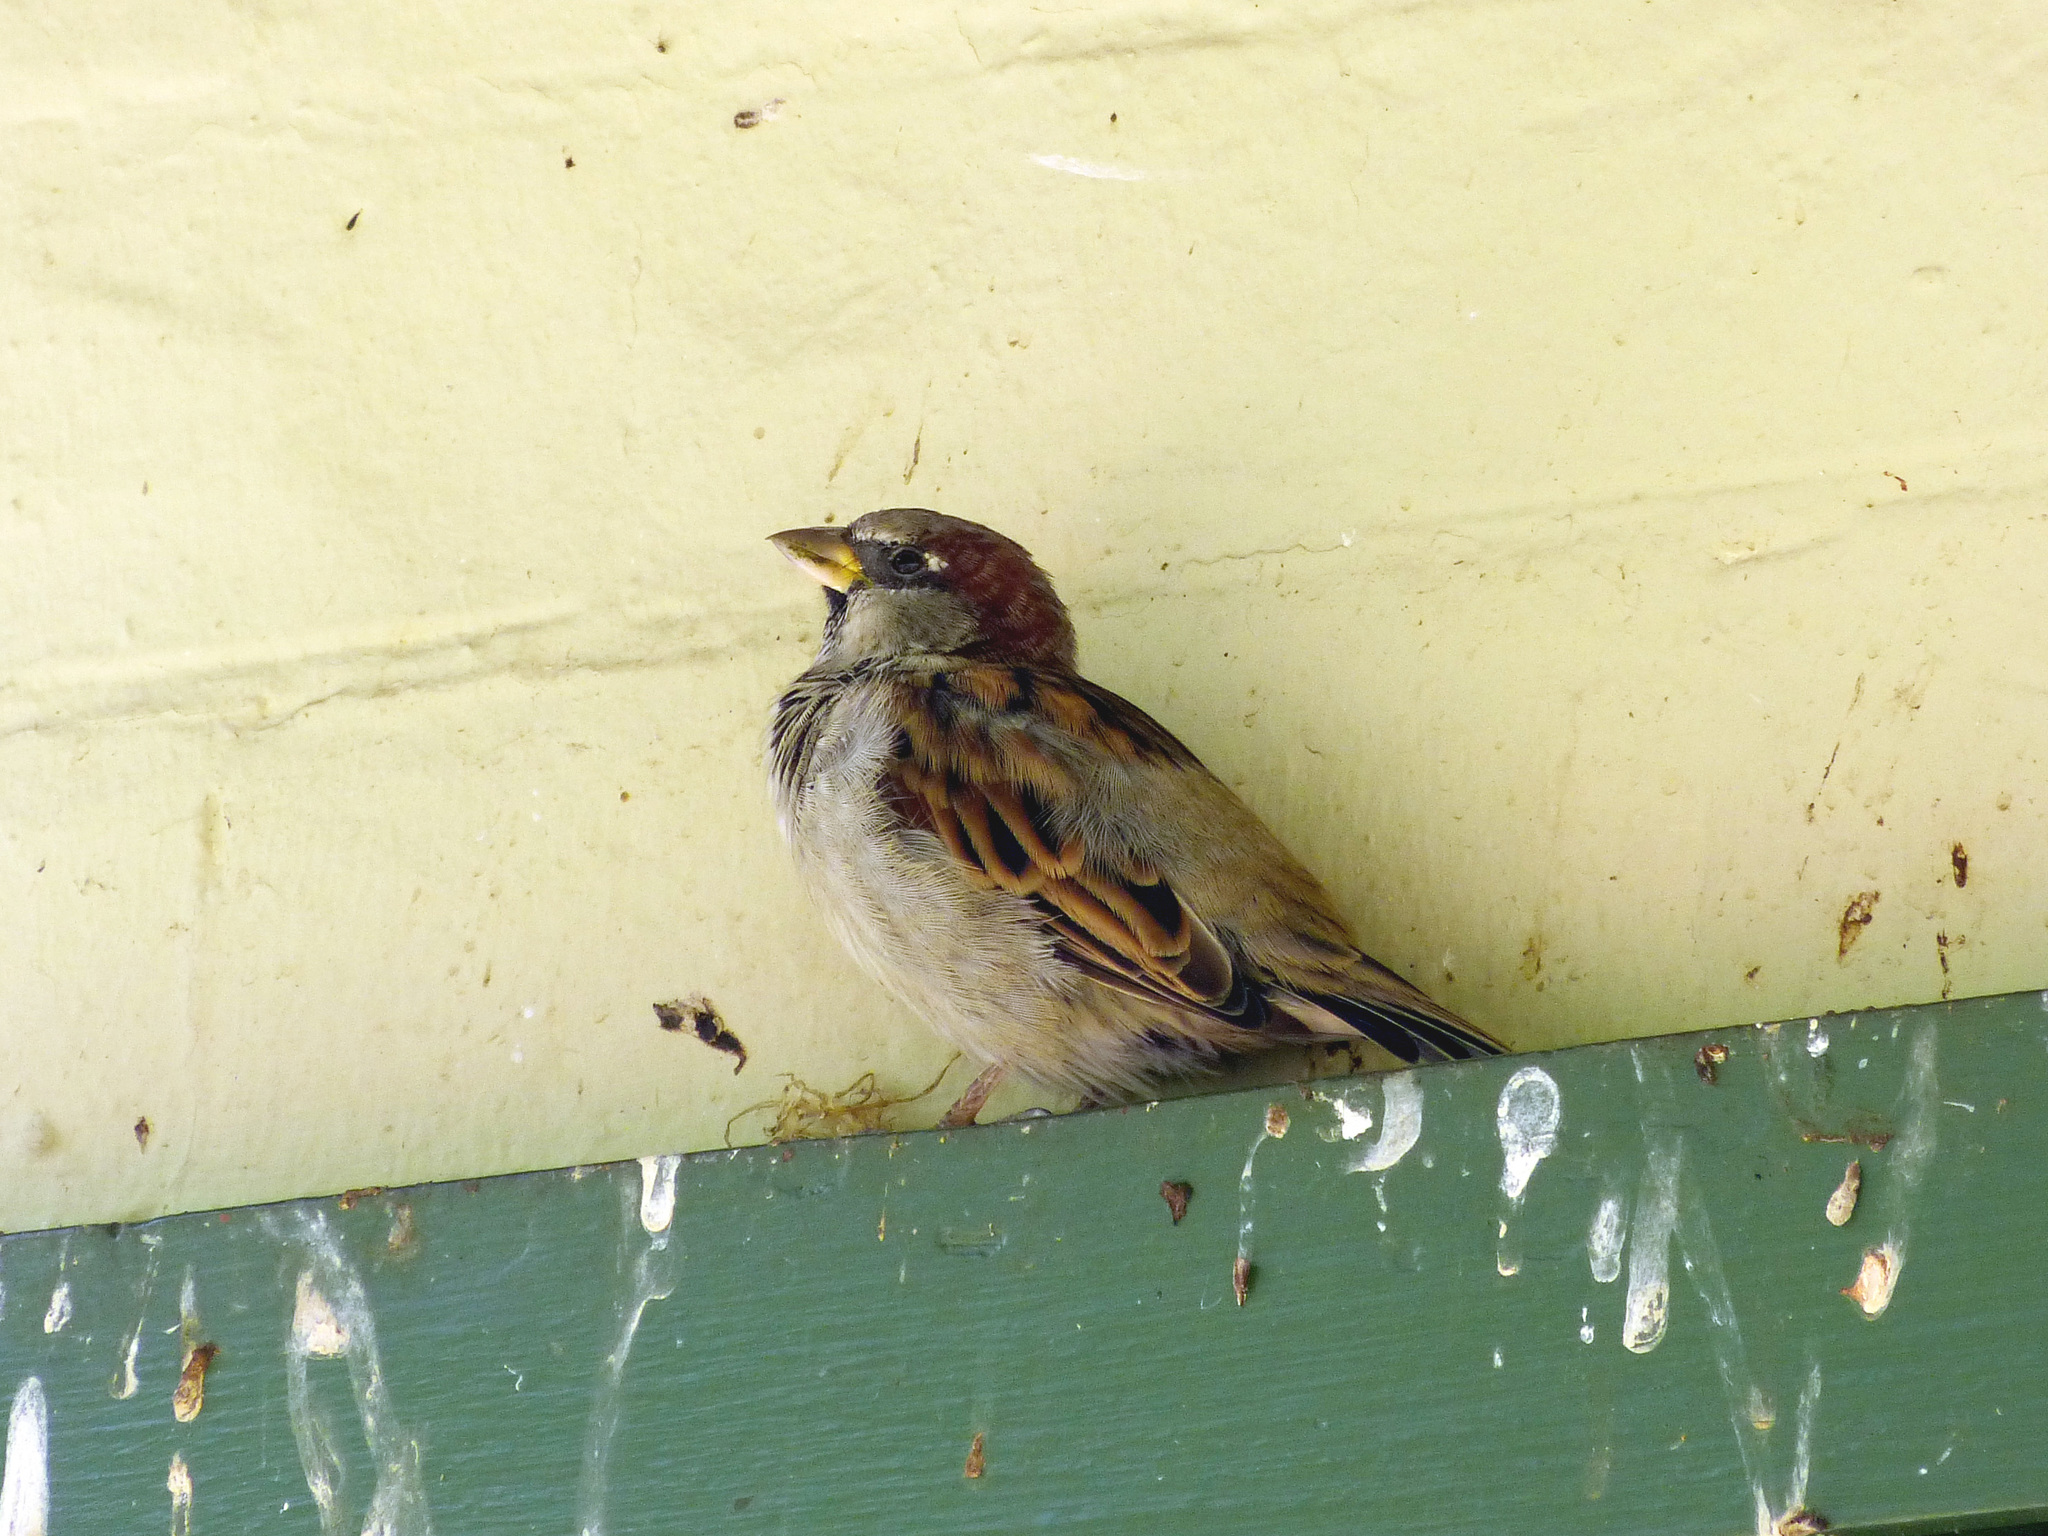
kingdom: Animalia
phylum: Chordata
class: Aves
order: Passeriformes
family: Passeridae
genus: Passer
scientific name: Passer domesticus
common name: House sparrow
